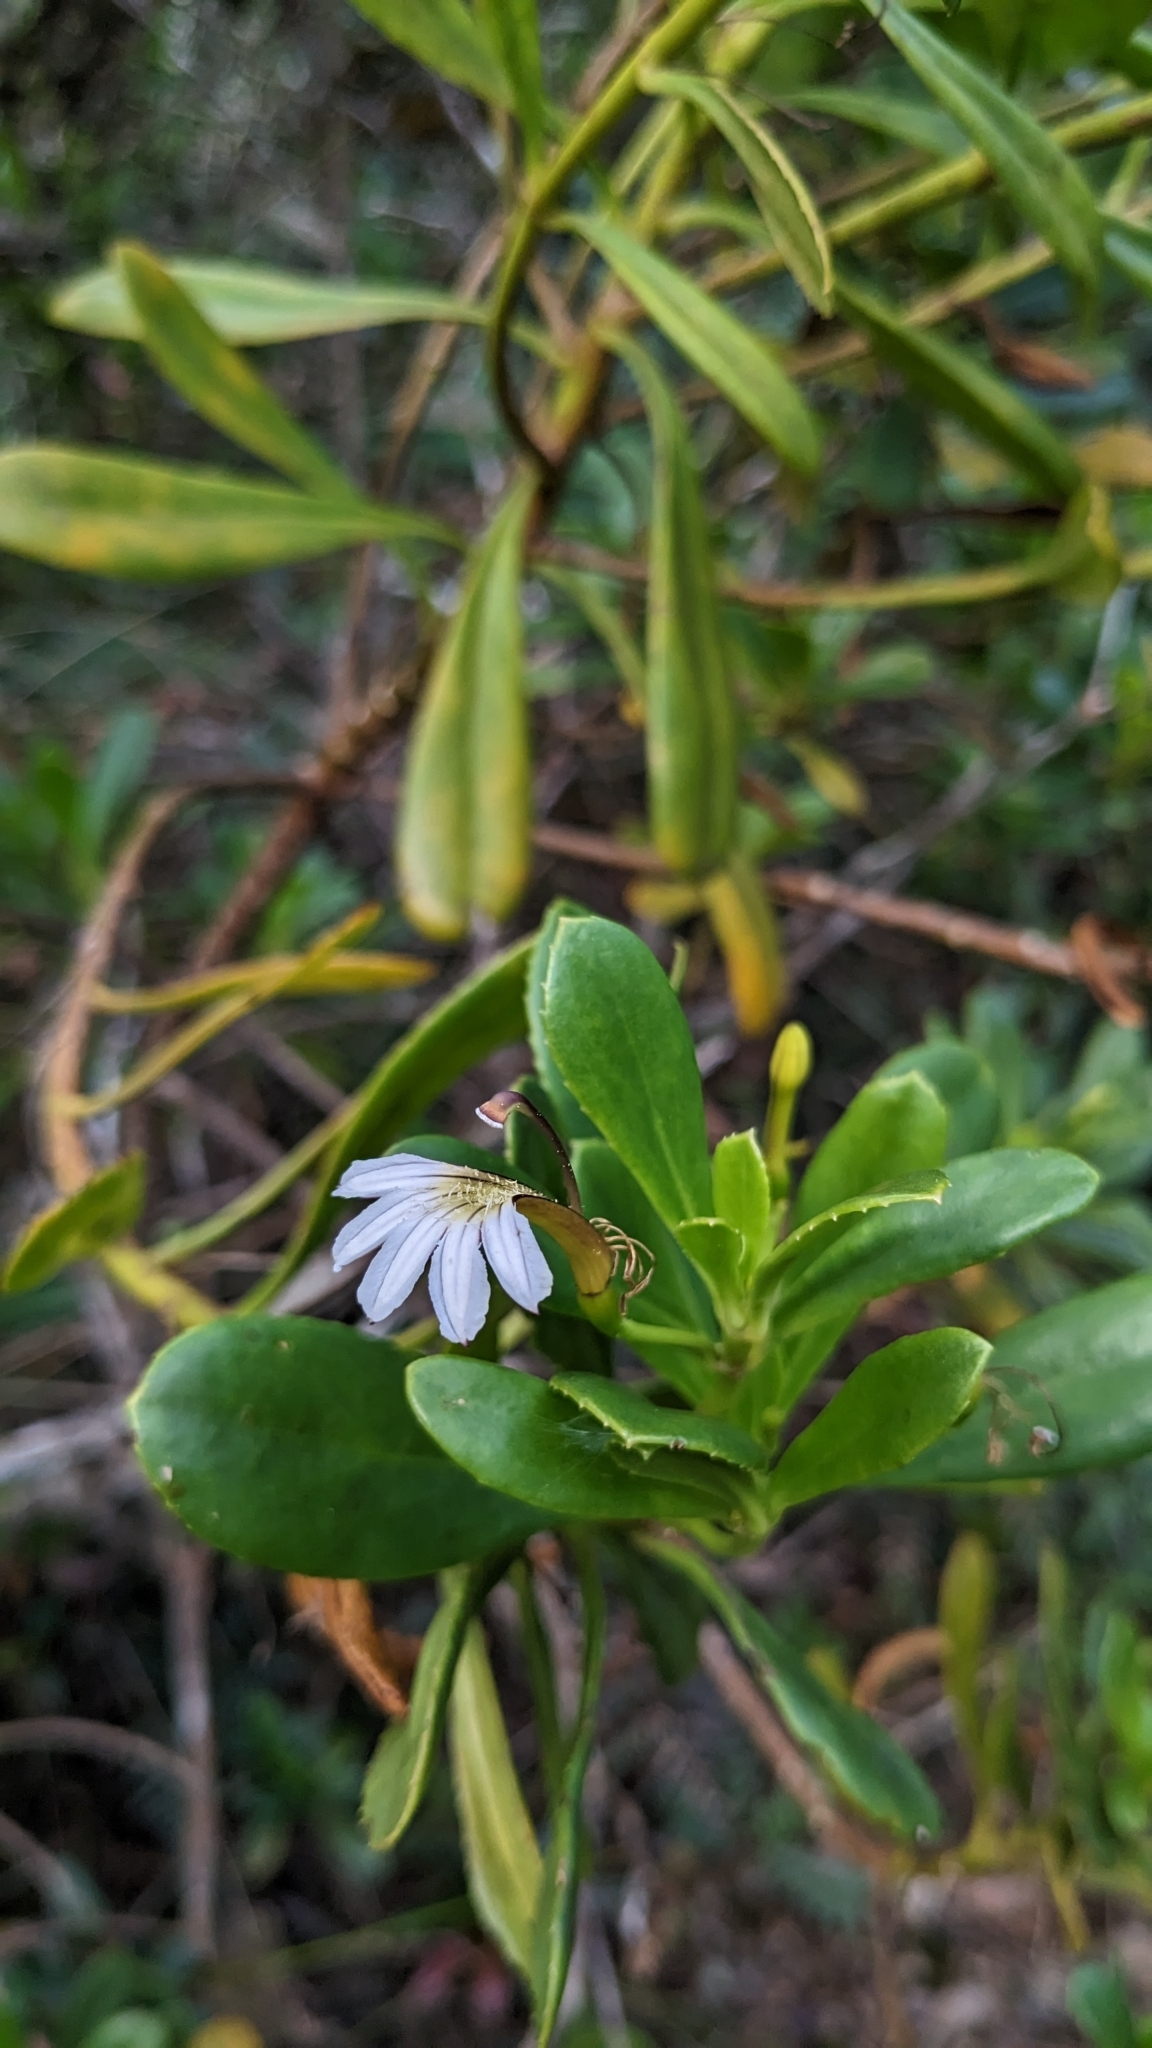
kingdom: Plantae
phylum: Tracheophyta
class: Magnoliopsida
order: Asterales
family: Goodeniaceae
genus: Scaevola
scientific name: Scaevola wrightii
